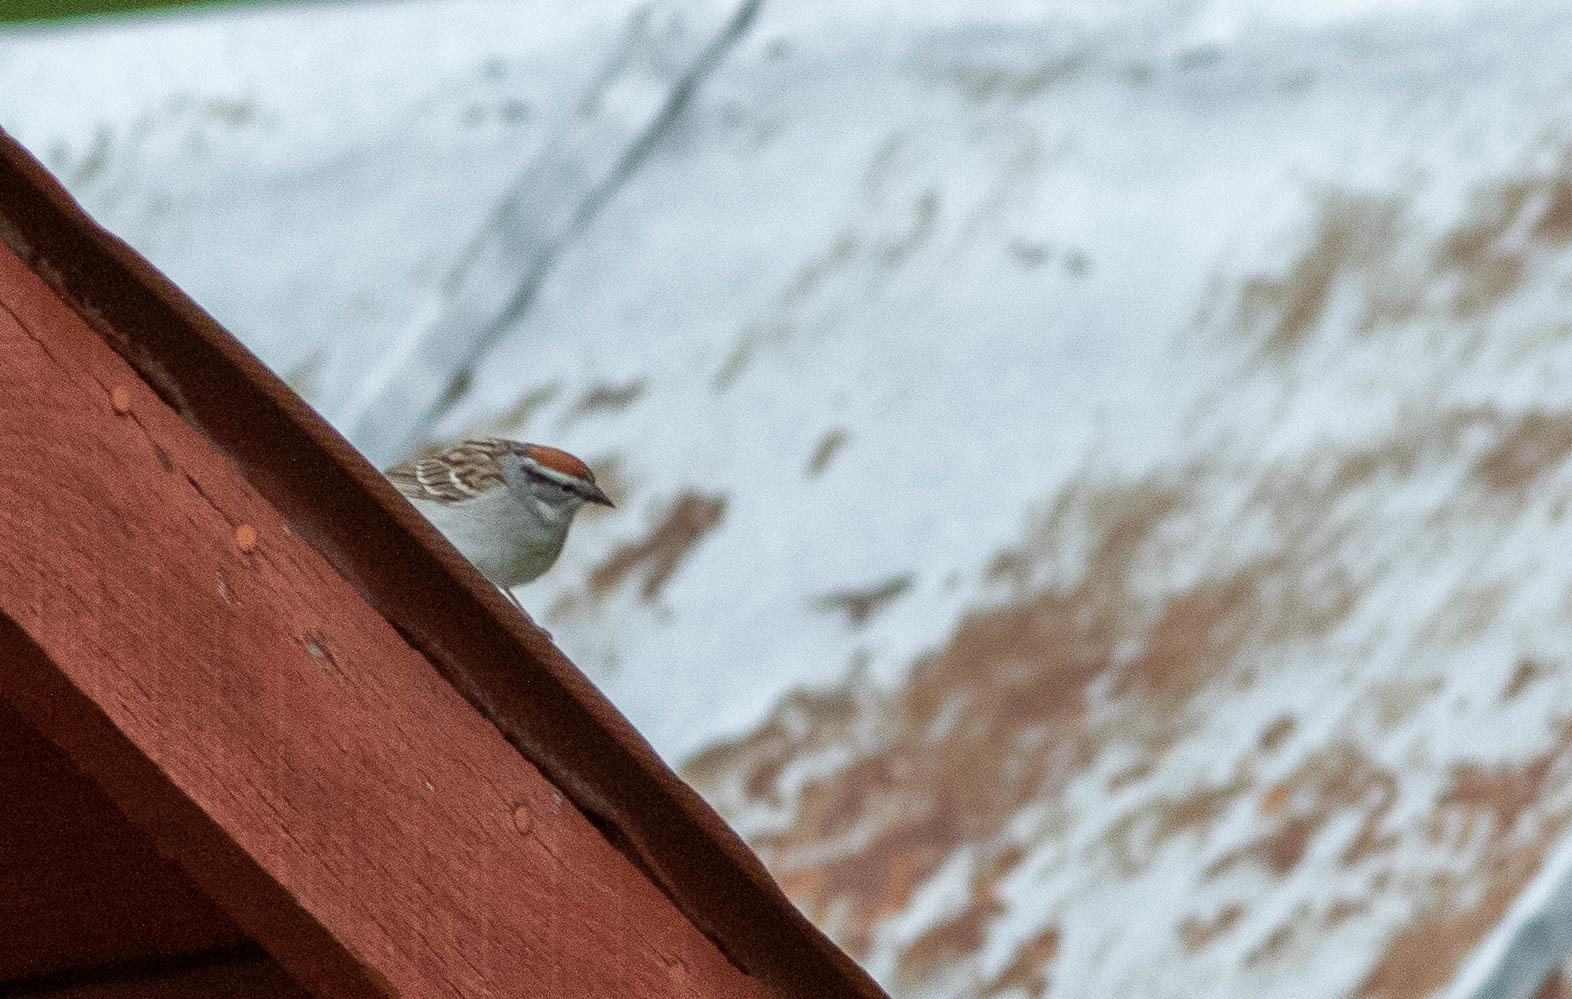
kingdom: Animalia
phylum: Chordata
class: Aves
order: Passeriformes
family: Passerellidae
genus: Spizella
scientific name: Spizella passerina
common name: Chipping sparrow
